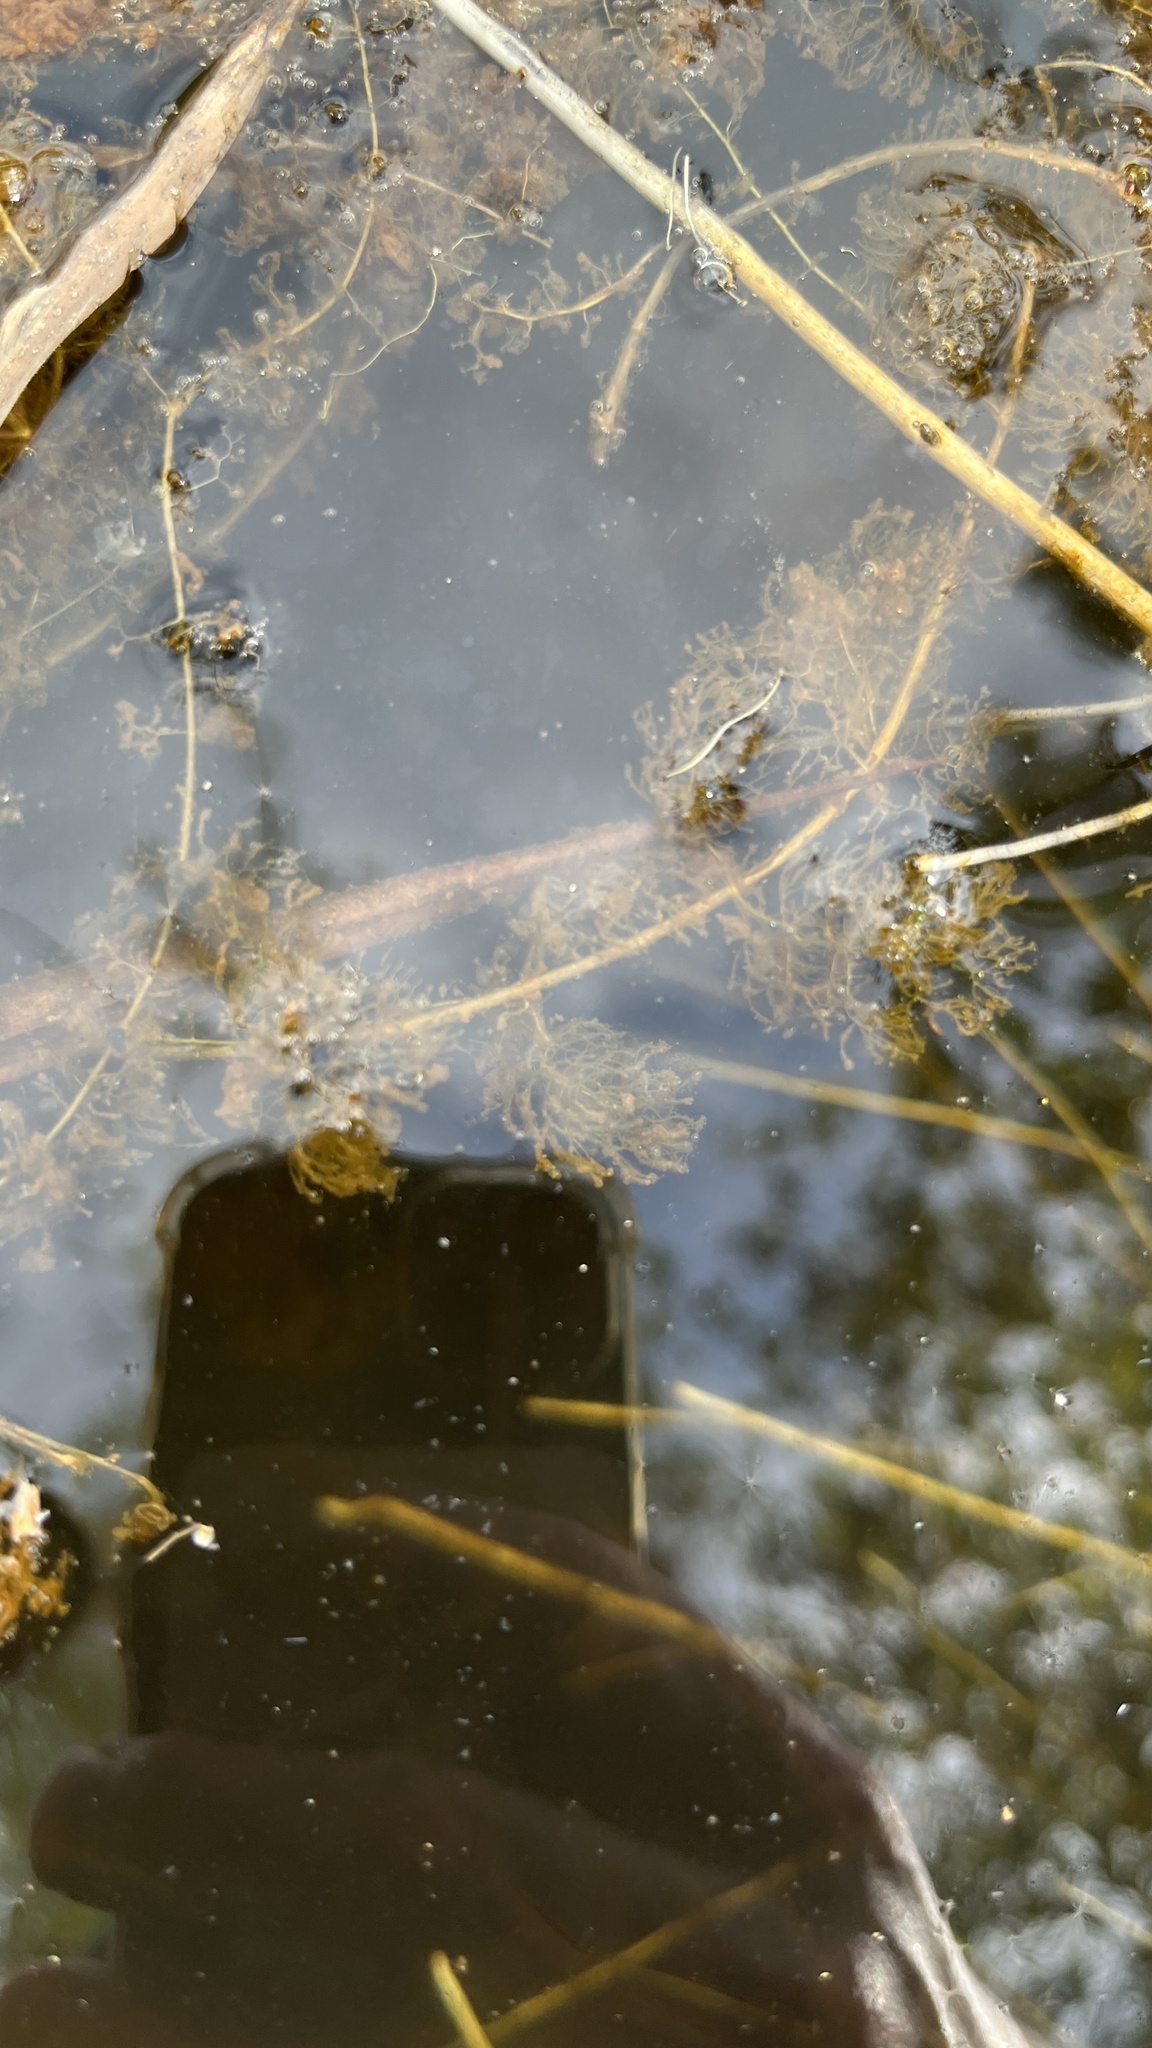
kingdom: Plantae
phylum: Tracheophyta
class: Magnoliopsida
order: Lamiales
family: Lentibulariaceae
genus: Utricularia
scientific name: Utricularia punctata
